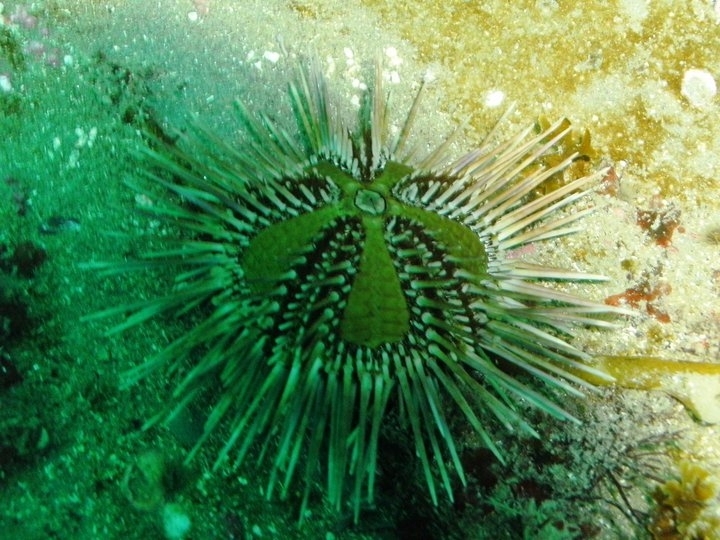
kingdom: Animalia
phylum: Echinodermata
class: Echinoidea
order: Arbacioida
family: Arbaciidae
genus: Arbacia
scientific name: Arbacia dufresnii
